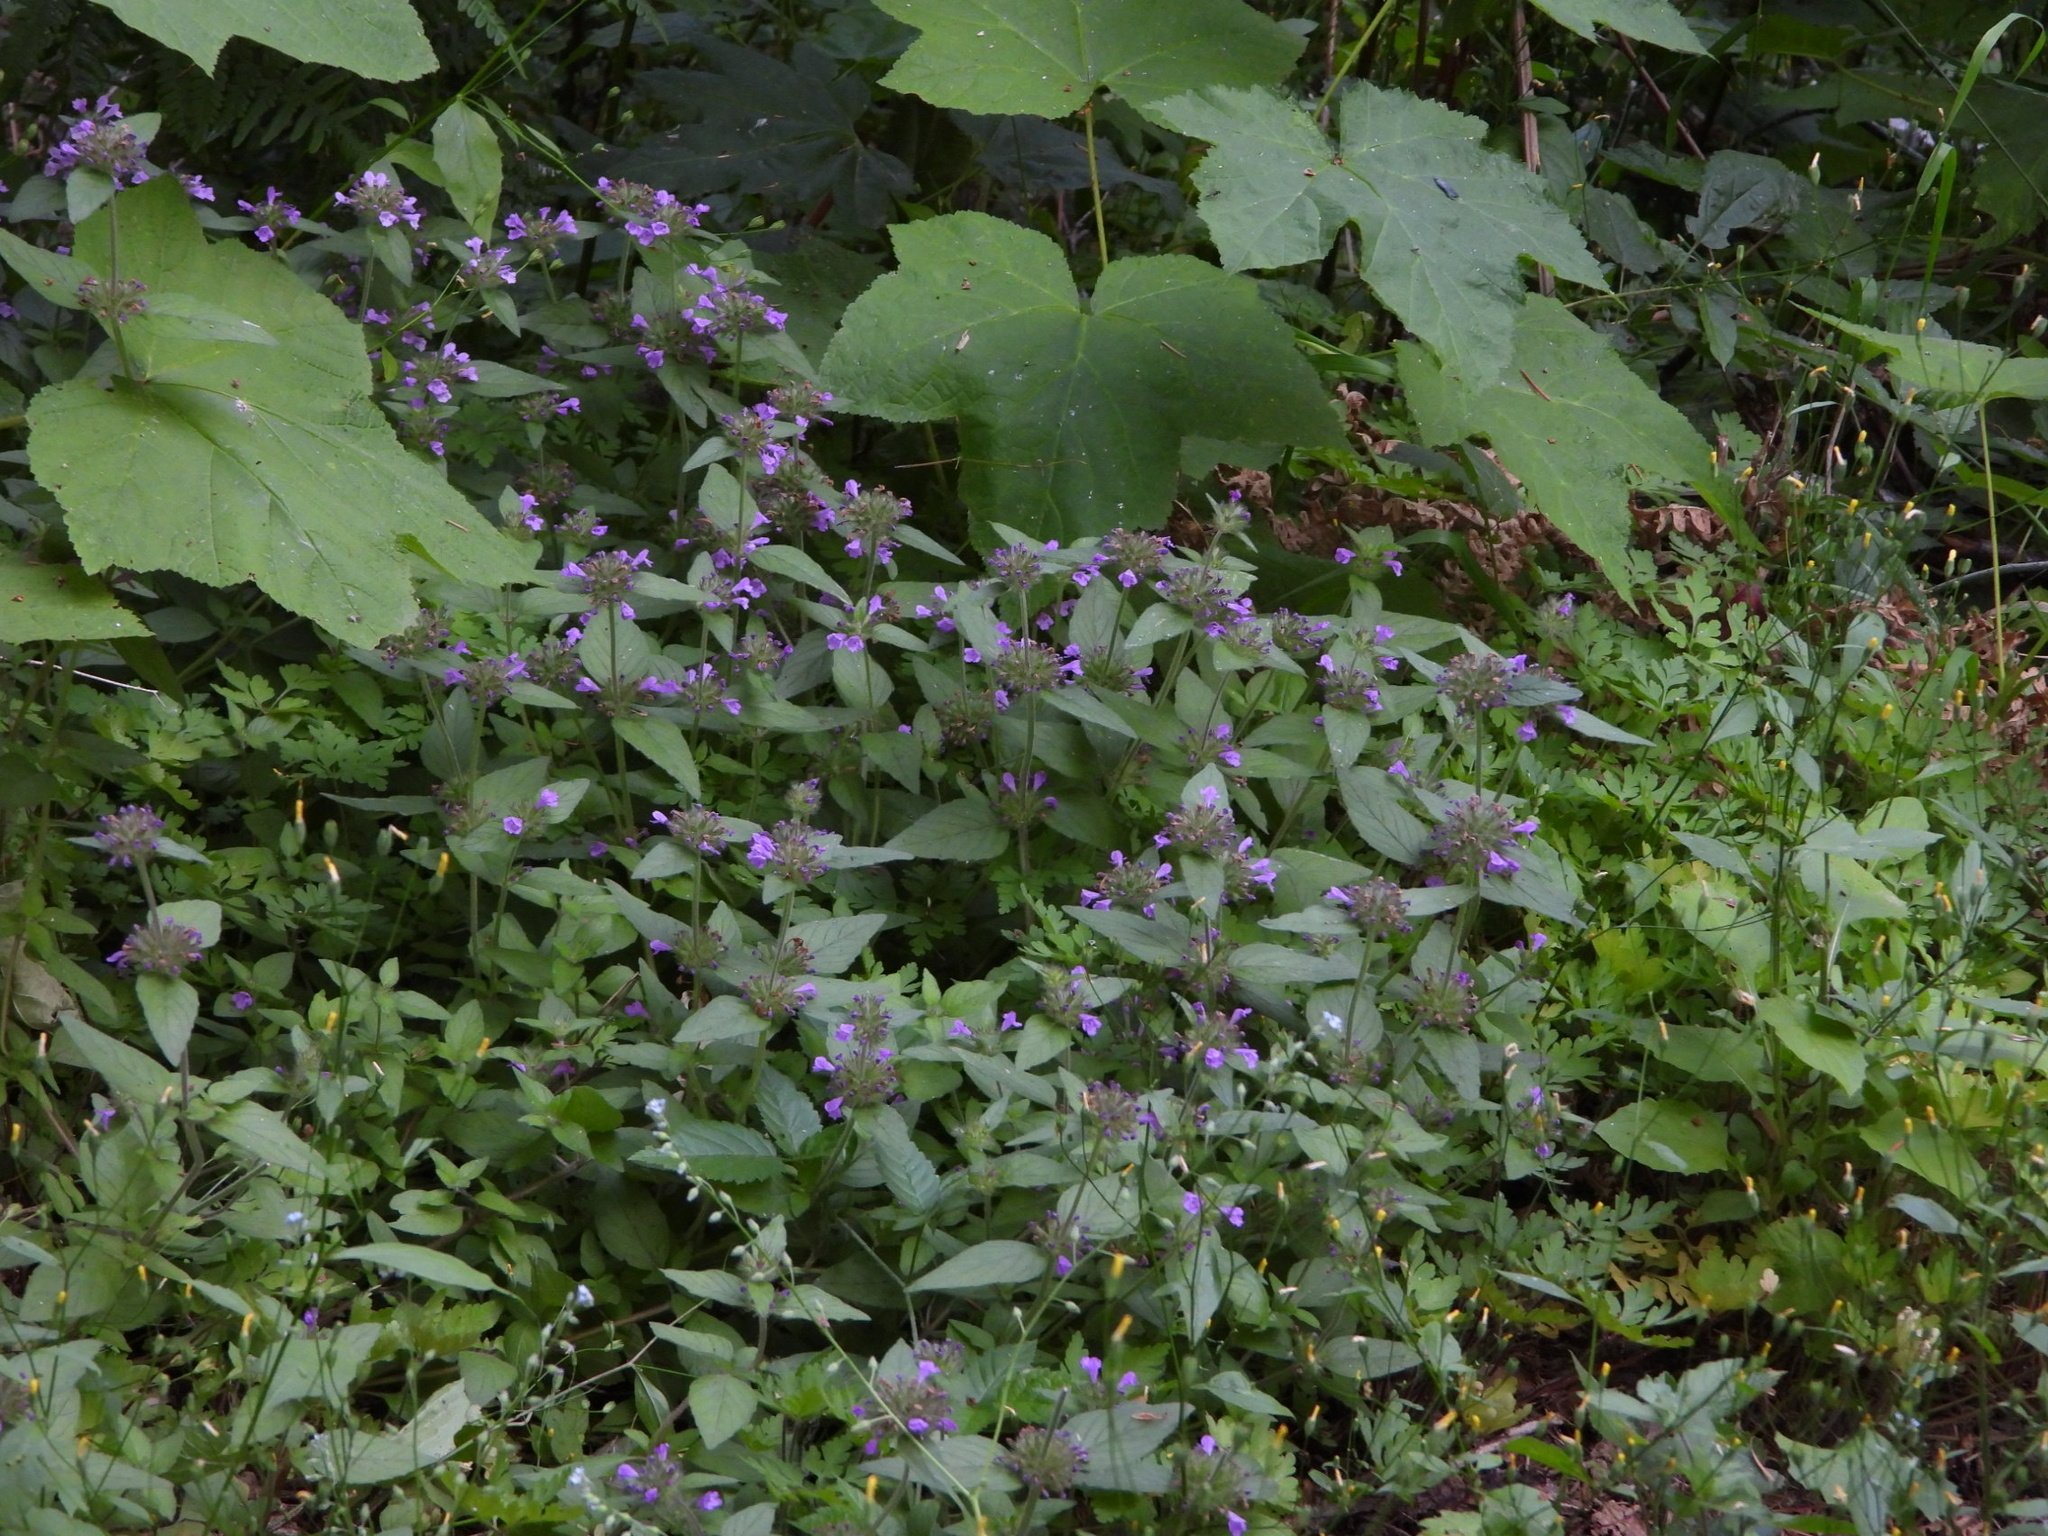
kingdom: Plantae
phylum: Tracheophyta
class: Magnoliopsida
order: Lamiales
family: Lamiaceae
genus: Clinopodium
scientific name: Clinopodium vulgare
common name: Wild basil
